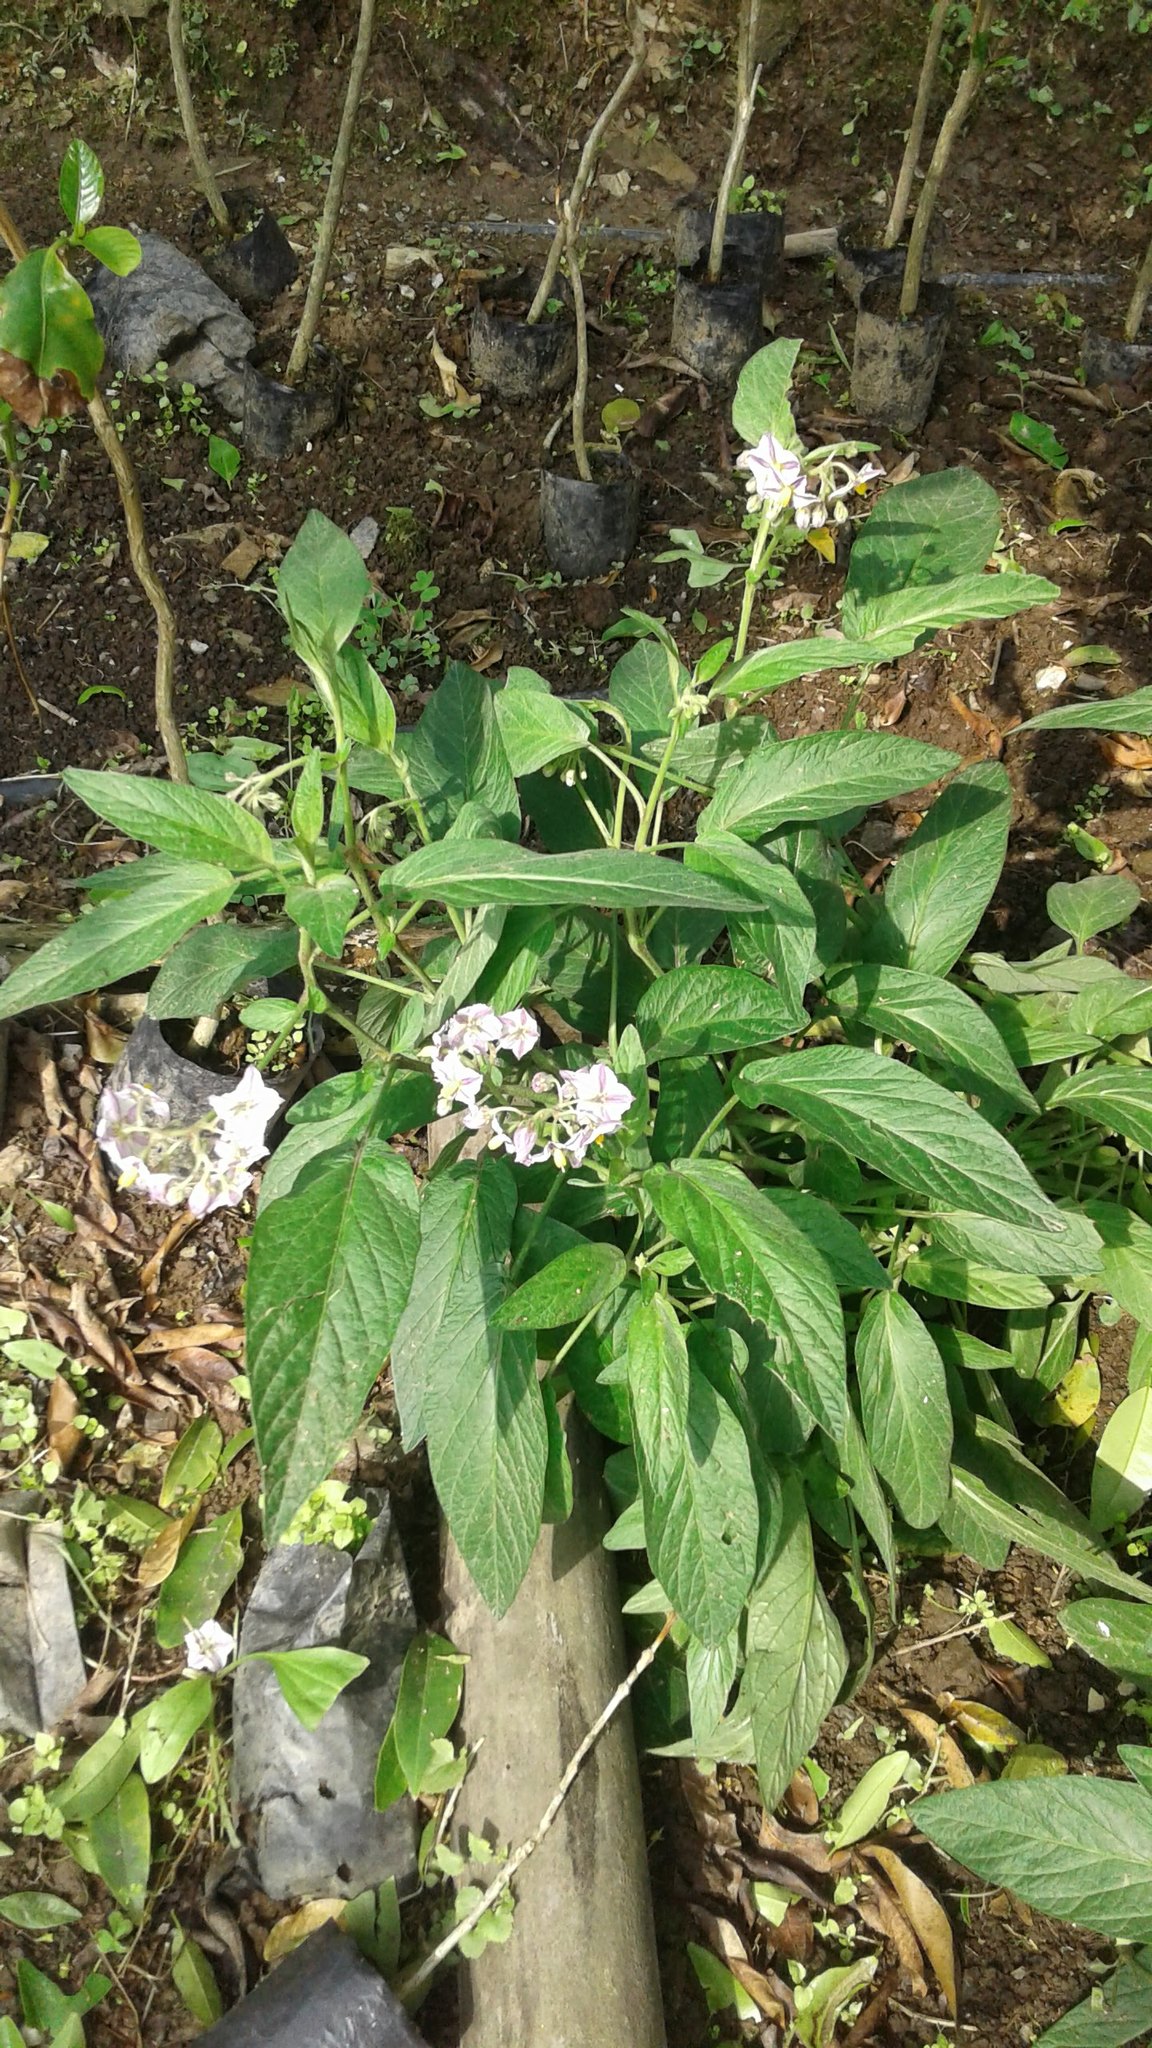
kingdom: Plantae
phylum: Tracheophyta
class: Magnoliopsida
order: Solanales
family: Solanaceae
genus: Solanum
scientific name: Solanum muricatum
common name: Peruvian pepino
